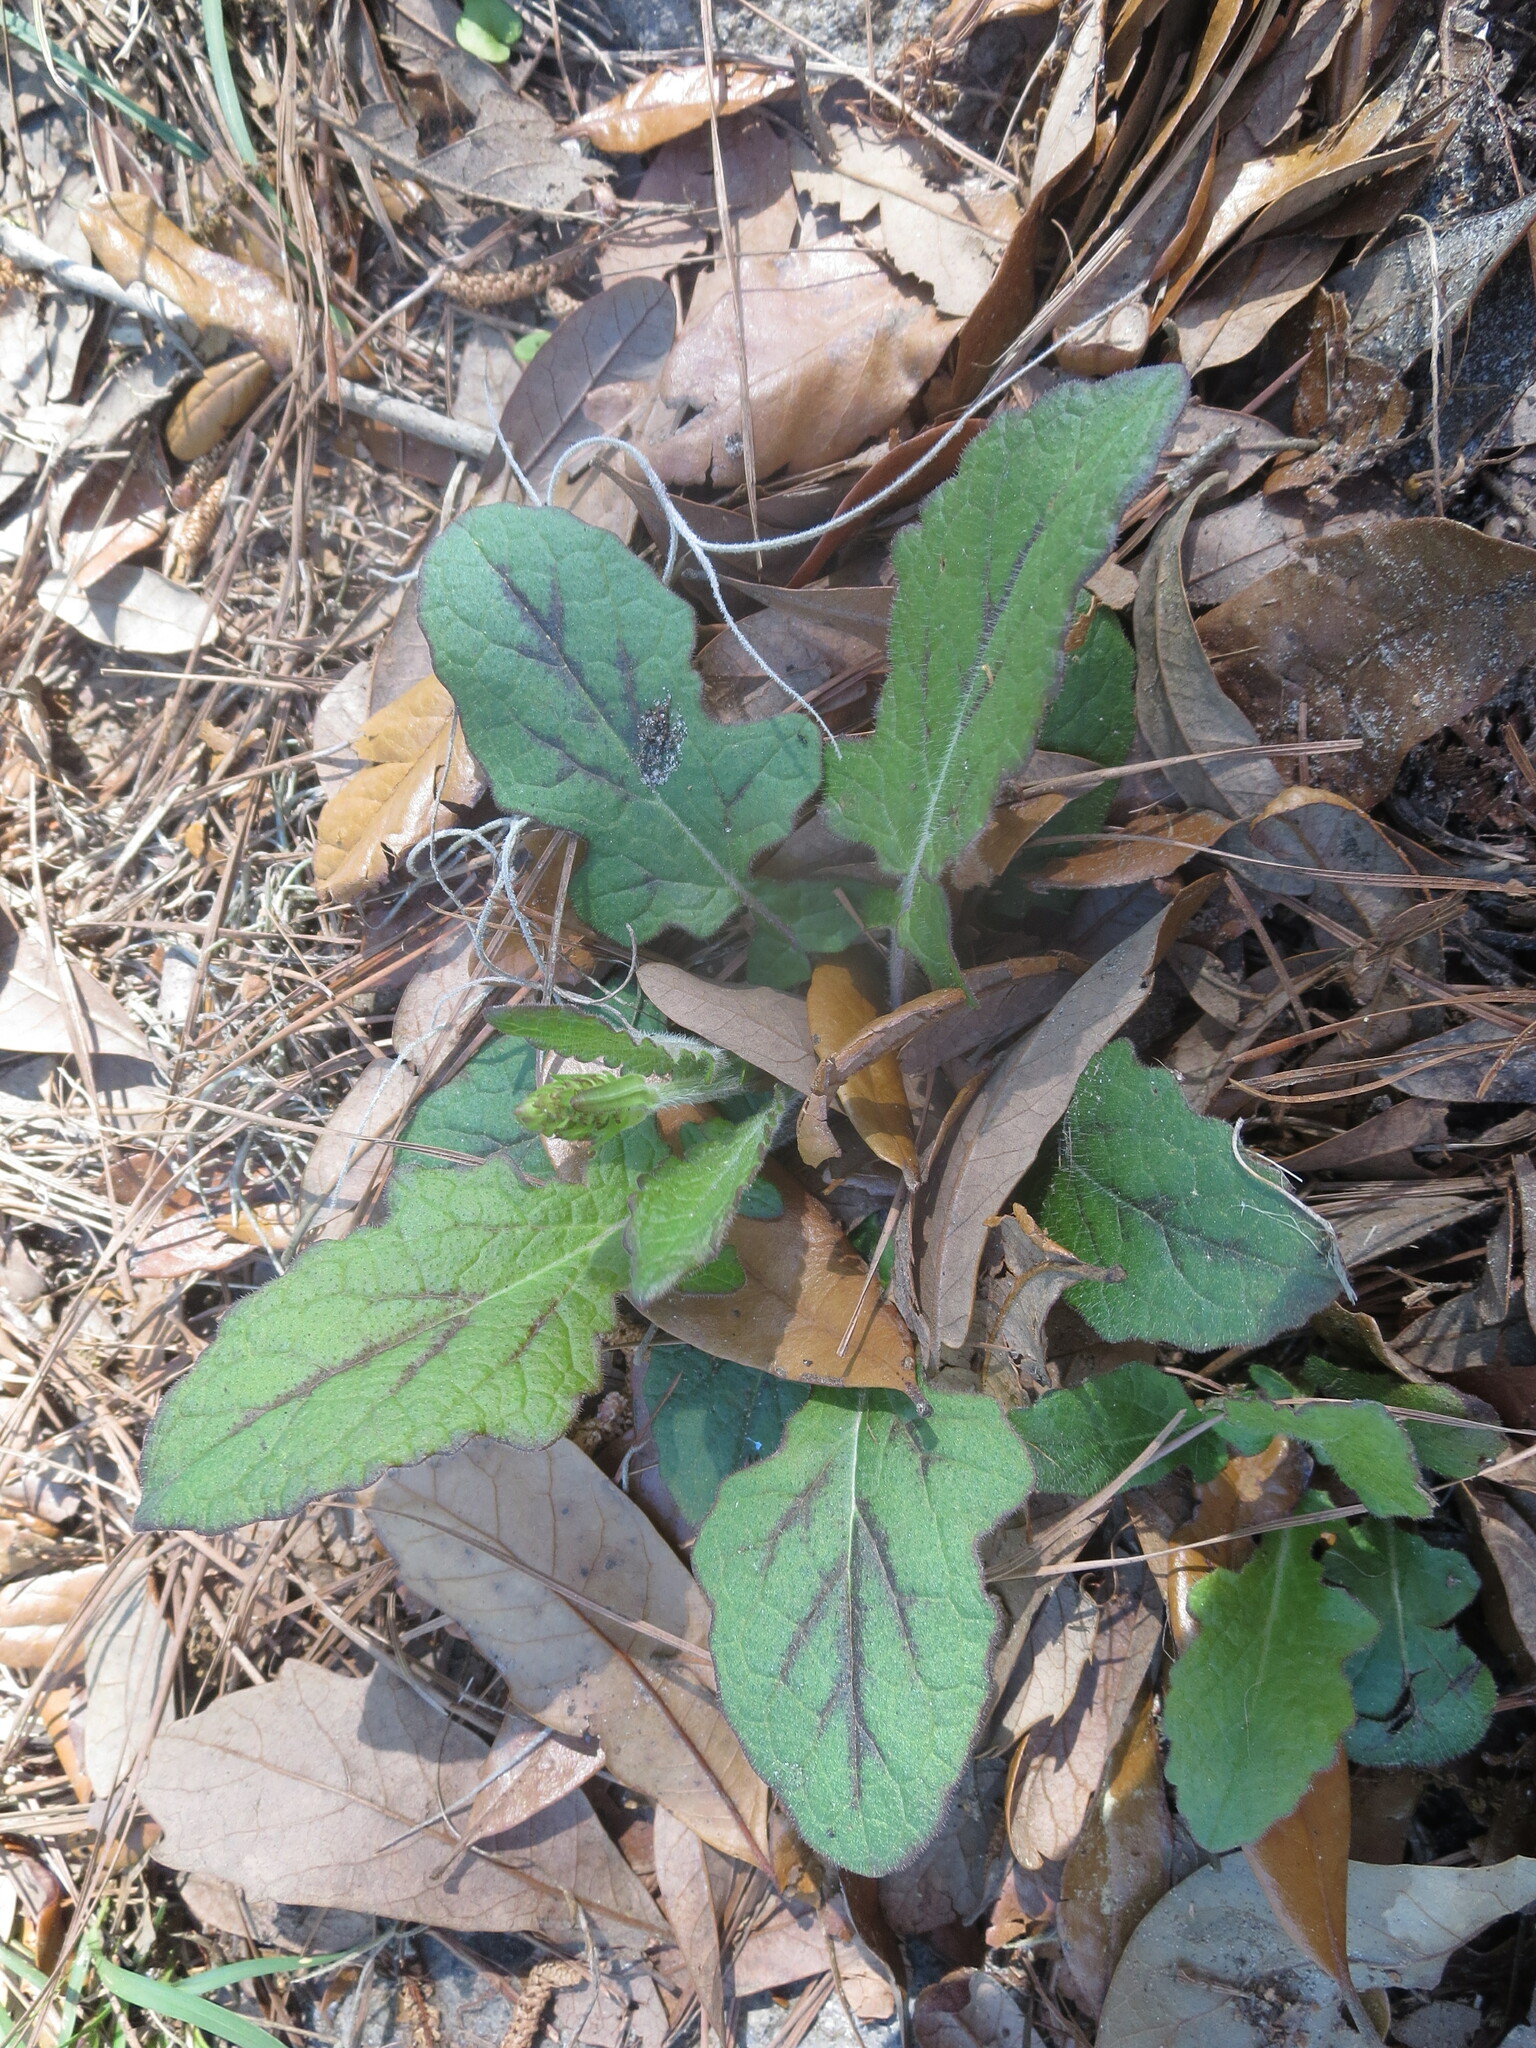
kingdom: Plantae
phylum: Tracheophyta
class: Magnoliopsida
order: Lamiales
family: Lamiaceae
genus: Salvia
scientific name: Salvia lyrata
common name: Cancerweed
